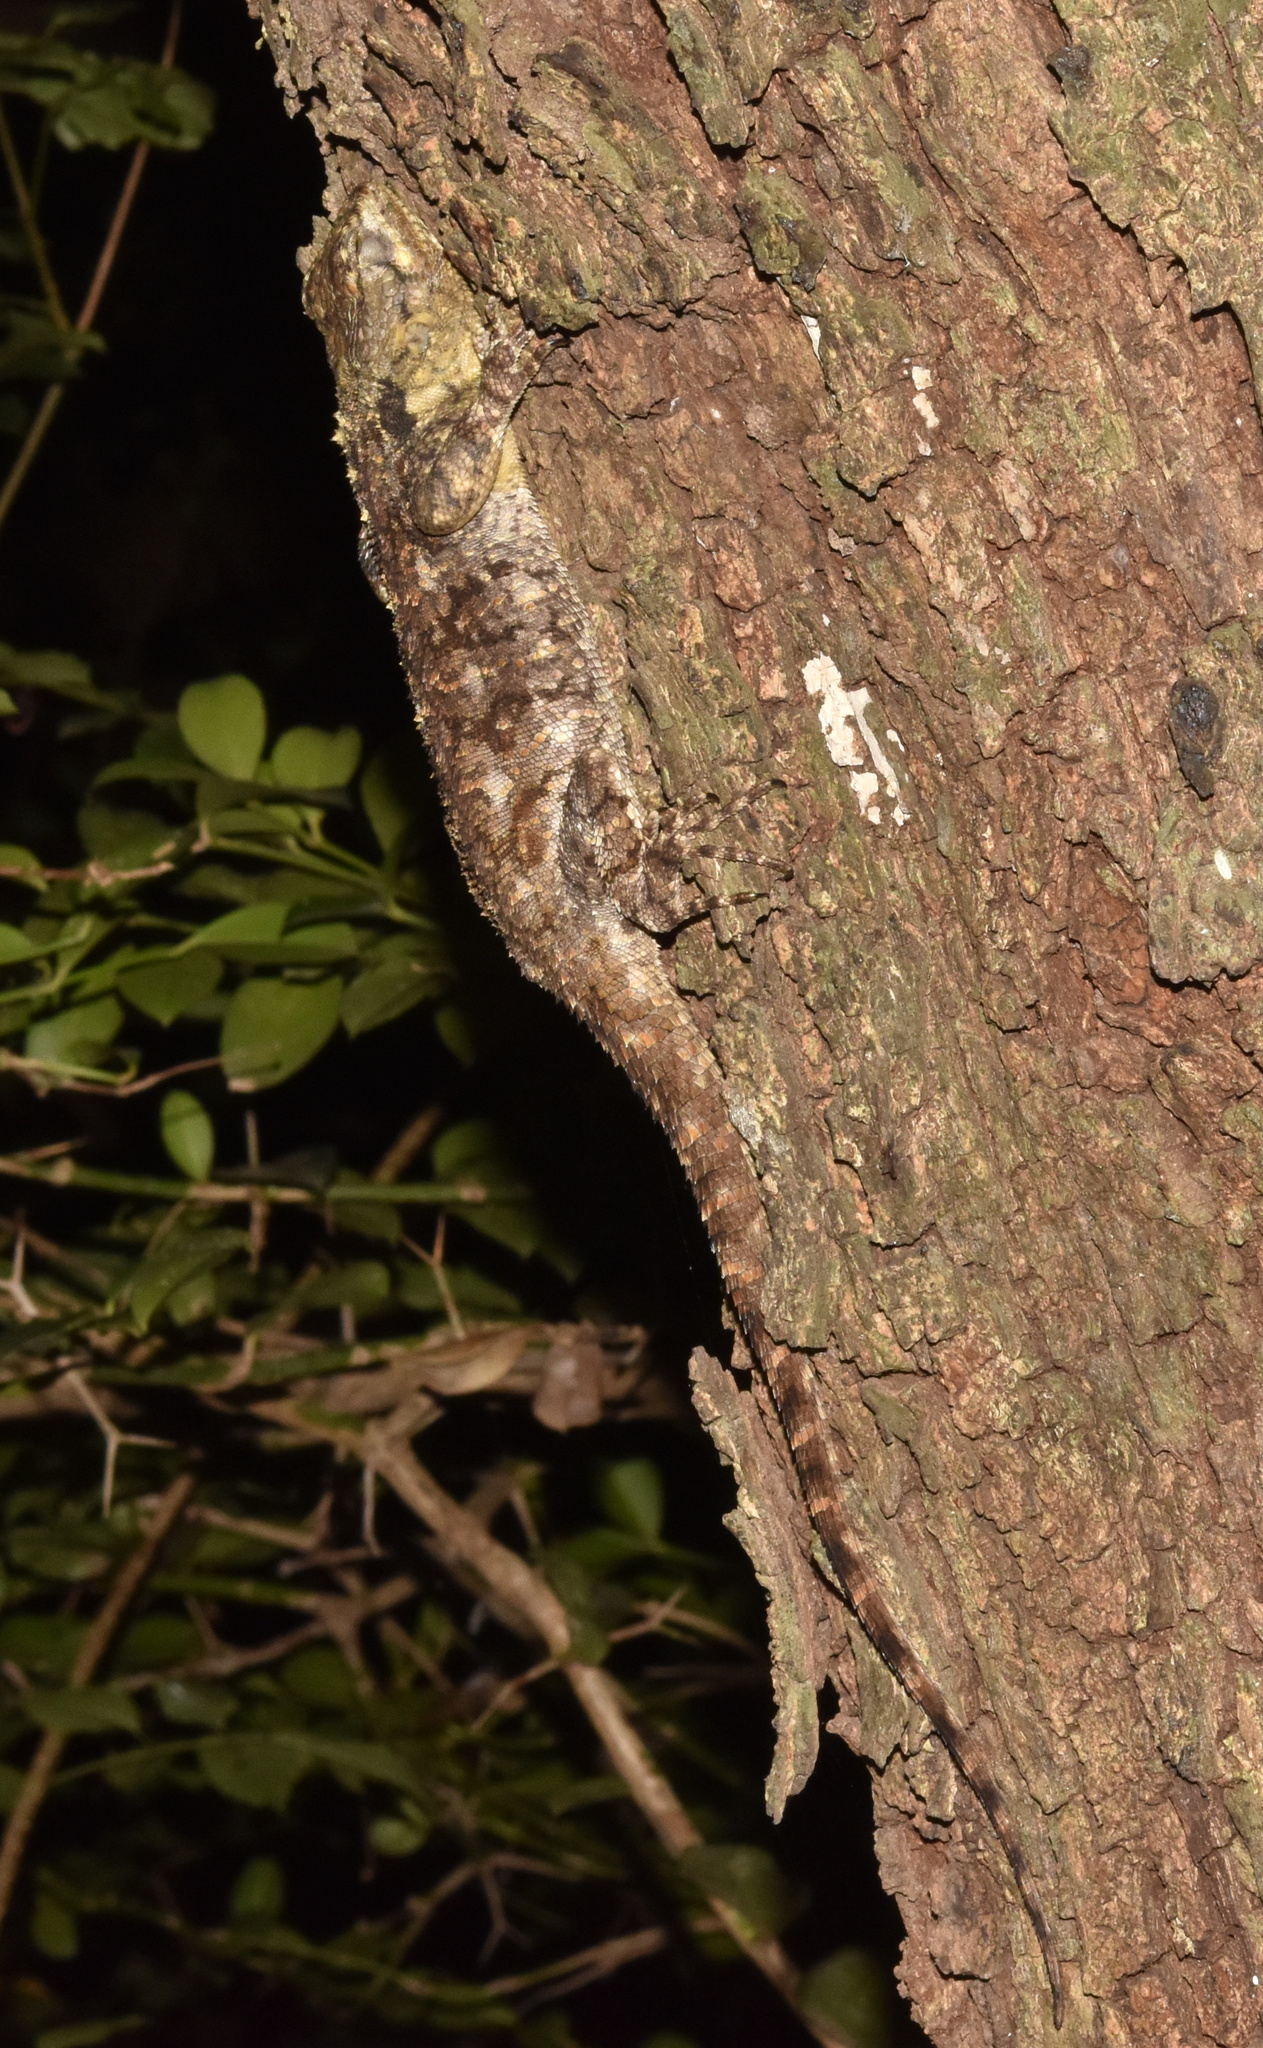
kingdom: Animalia
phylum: Chordata
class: Squamata
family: Agamidae
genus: Acanthocercus
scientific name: Acanthocercus atricollis
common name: Southern tree agama
